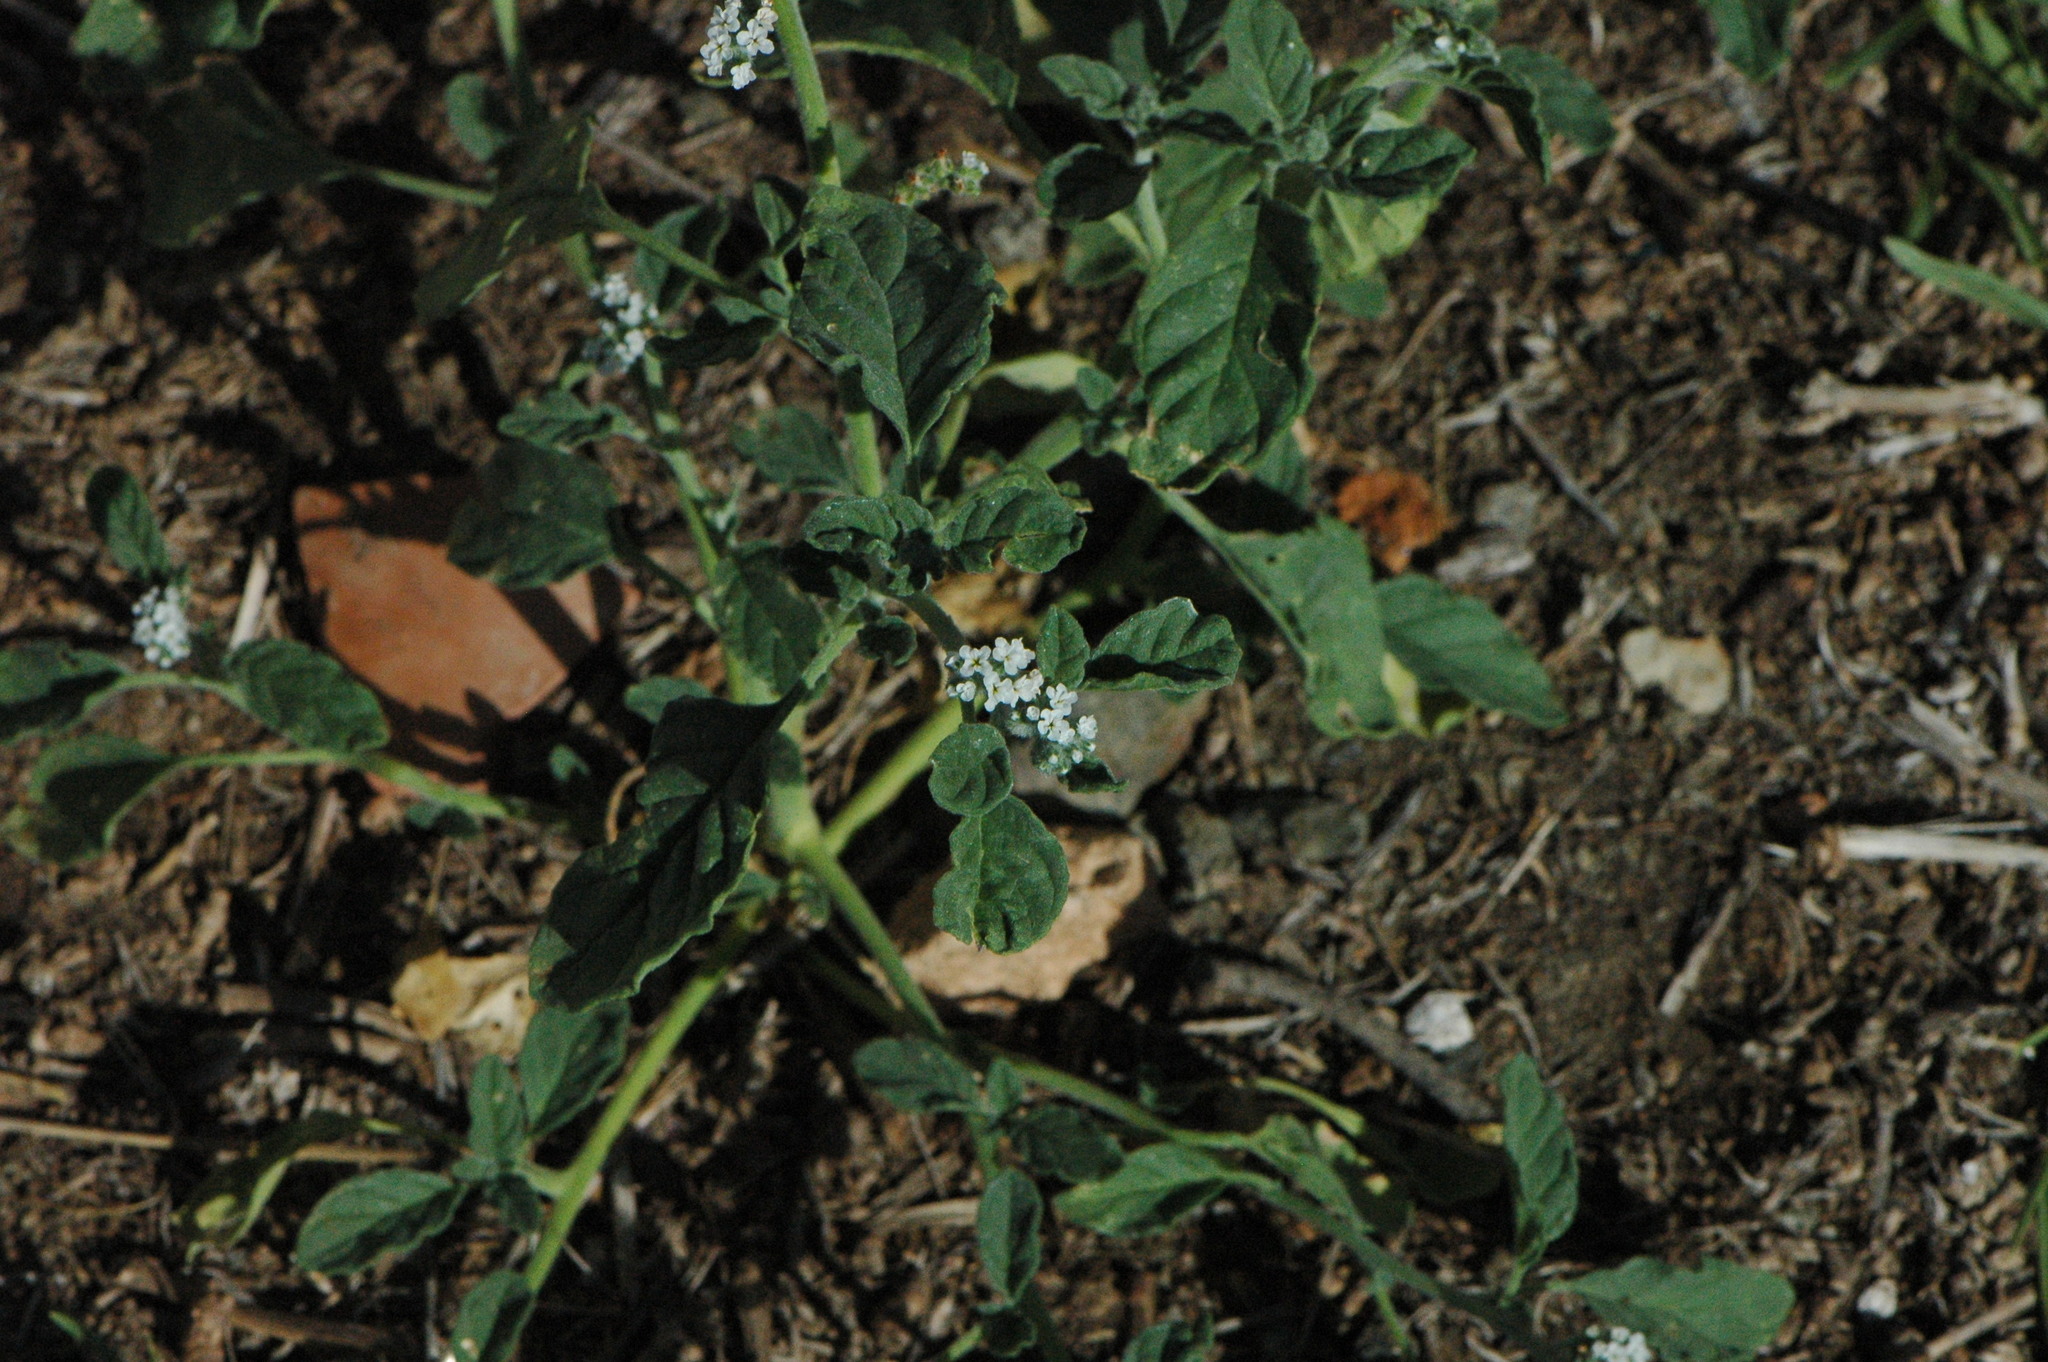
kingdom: Plantae
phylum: Tracheophyta
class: Magnoliopsida
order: Boraginales
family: Heliotropiaceae
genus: Heliotropium
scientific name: Heliotropium europaeum
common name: European heliotrope
